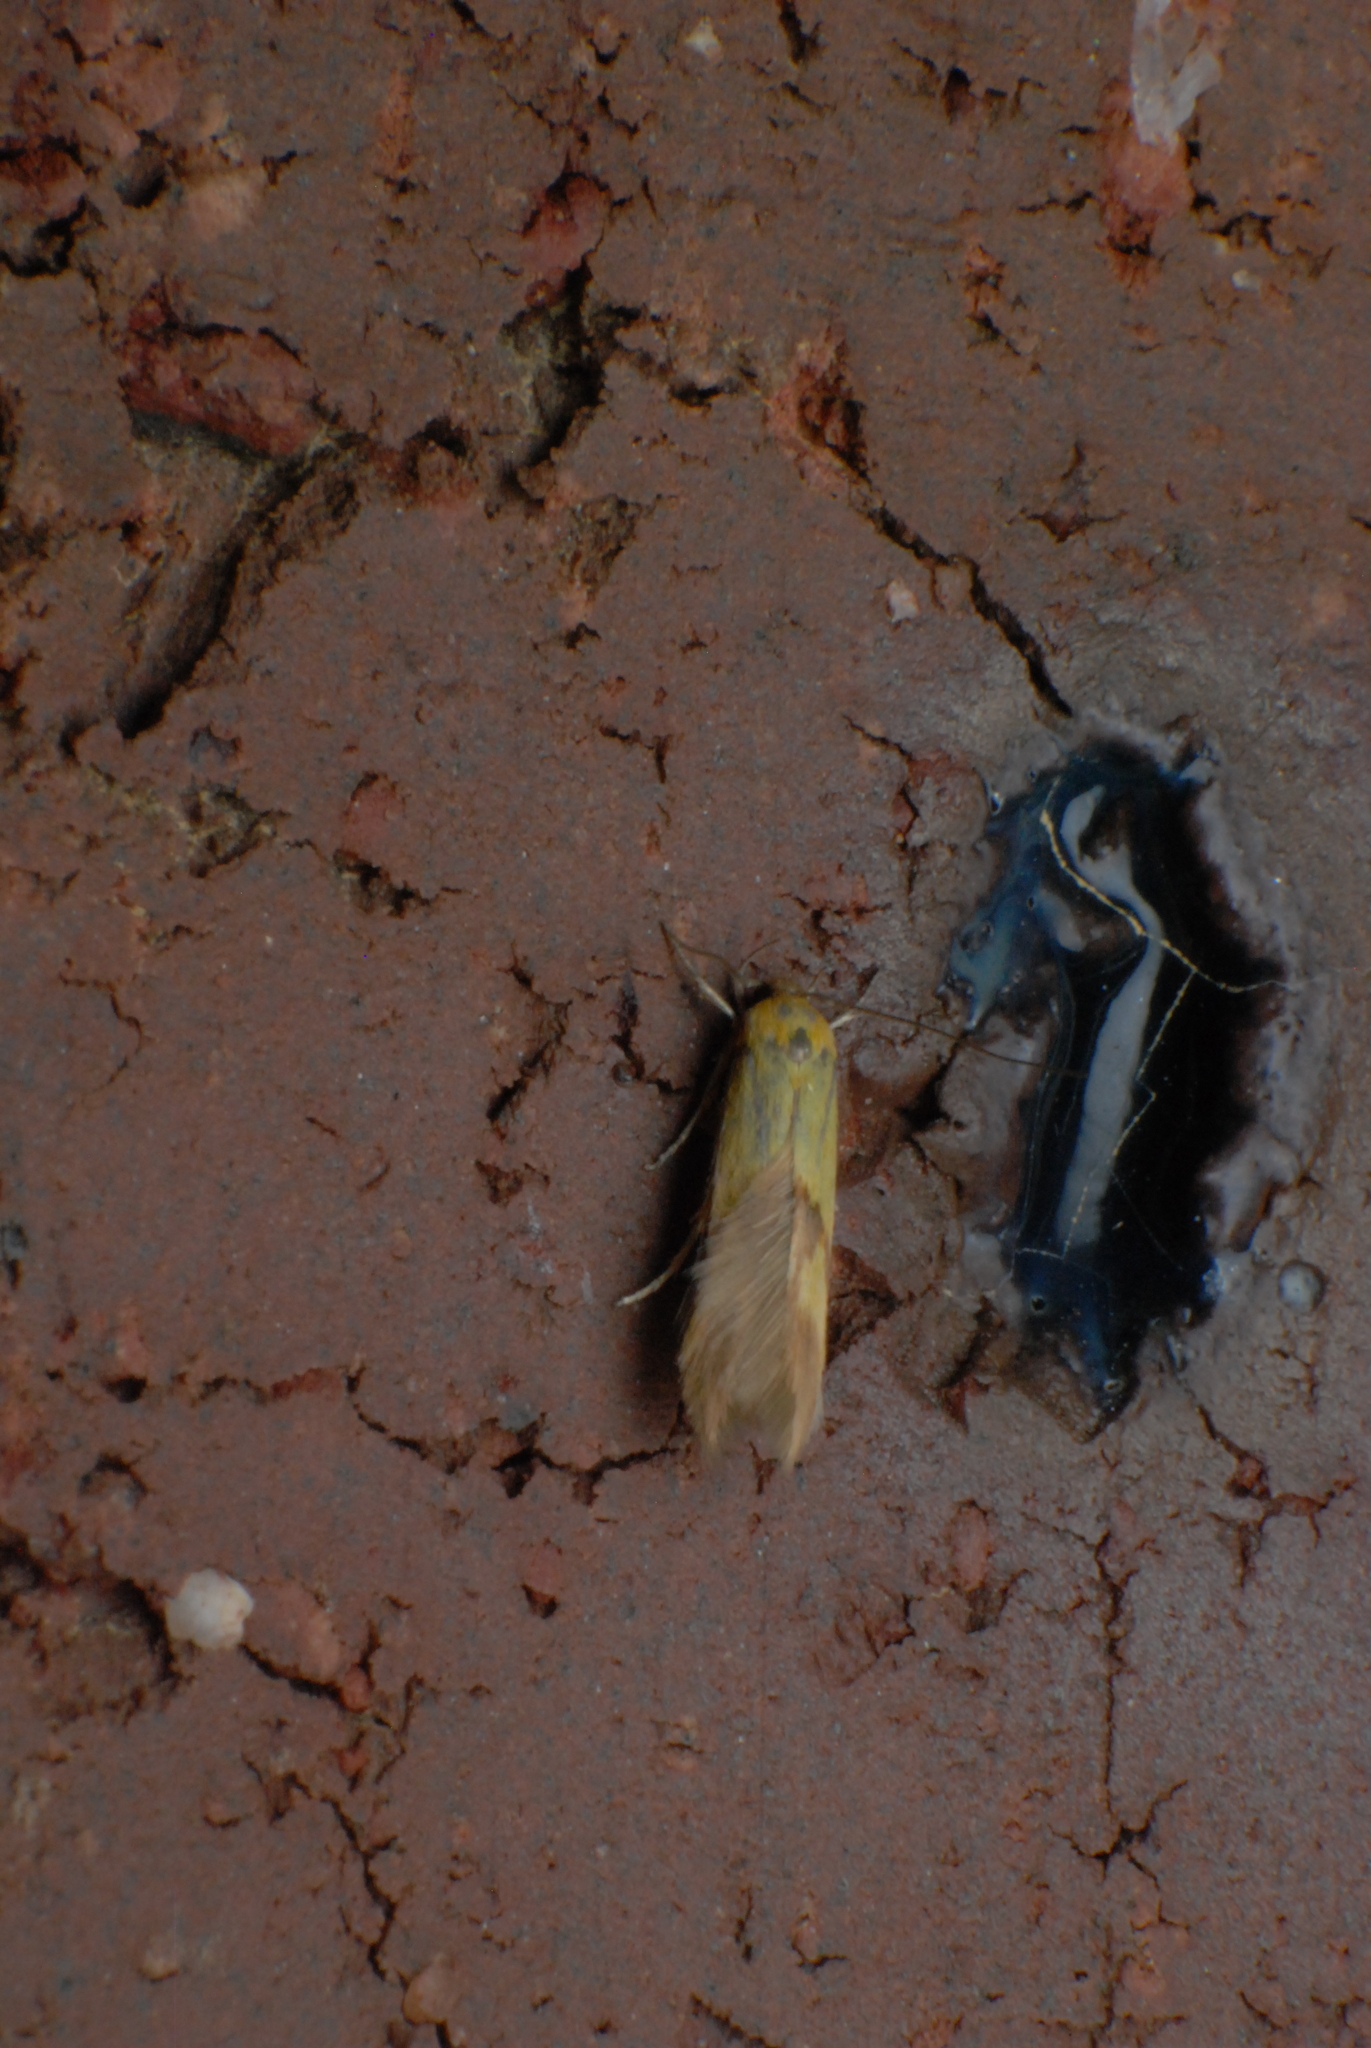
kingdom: Animalia
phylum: Arthropoda
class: Insecta
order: Lepidoptera
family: Stathmopodidae
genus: Stathmopoda
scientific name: Stathmopoda auriferella
